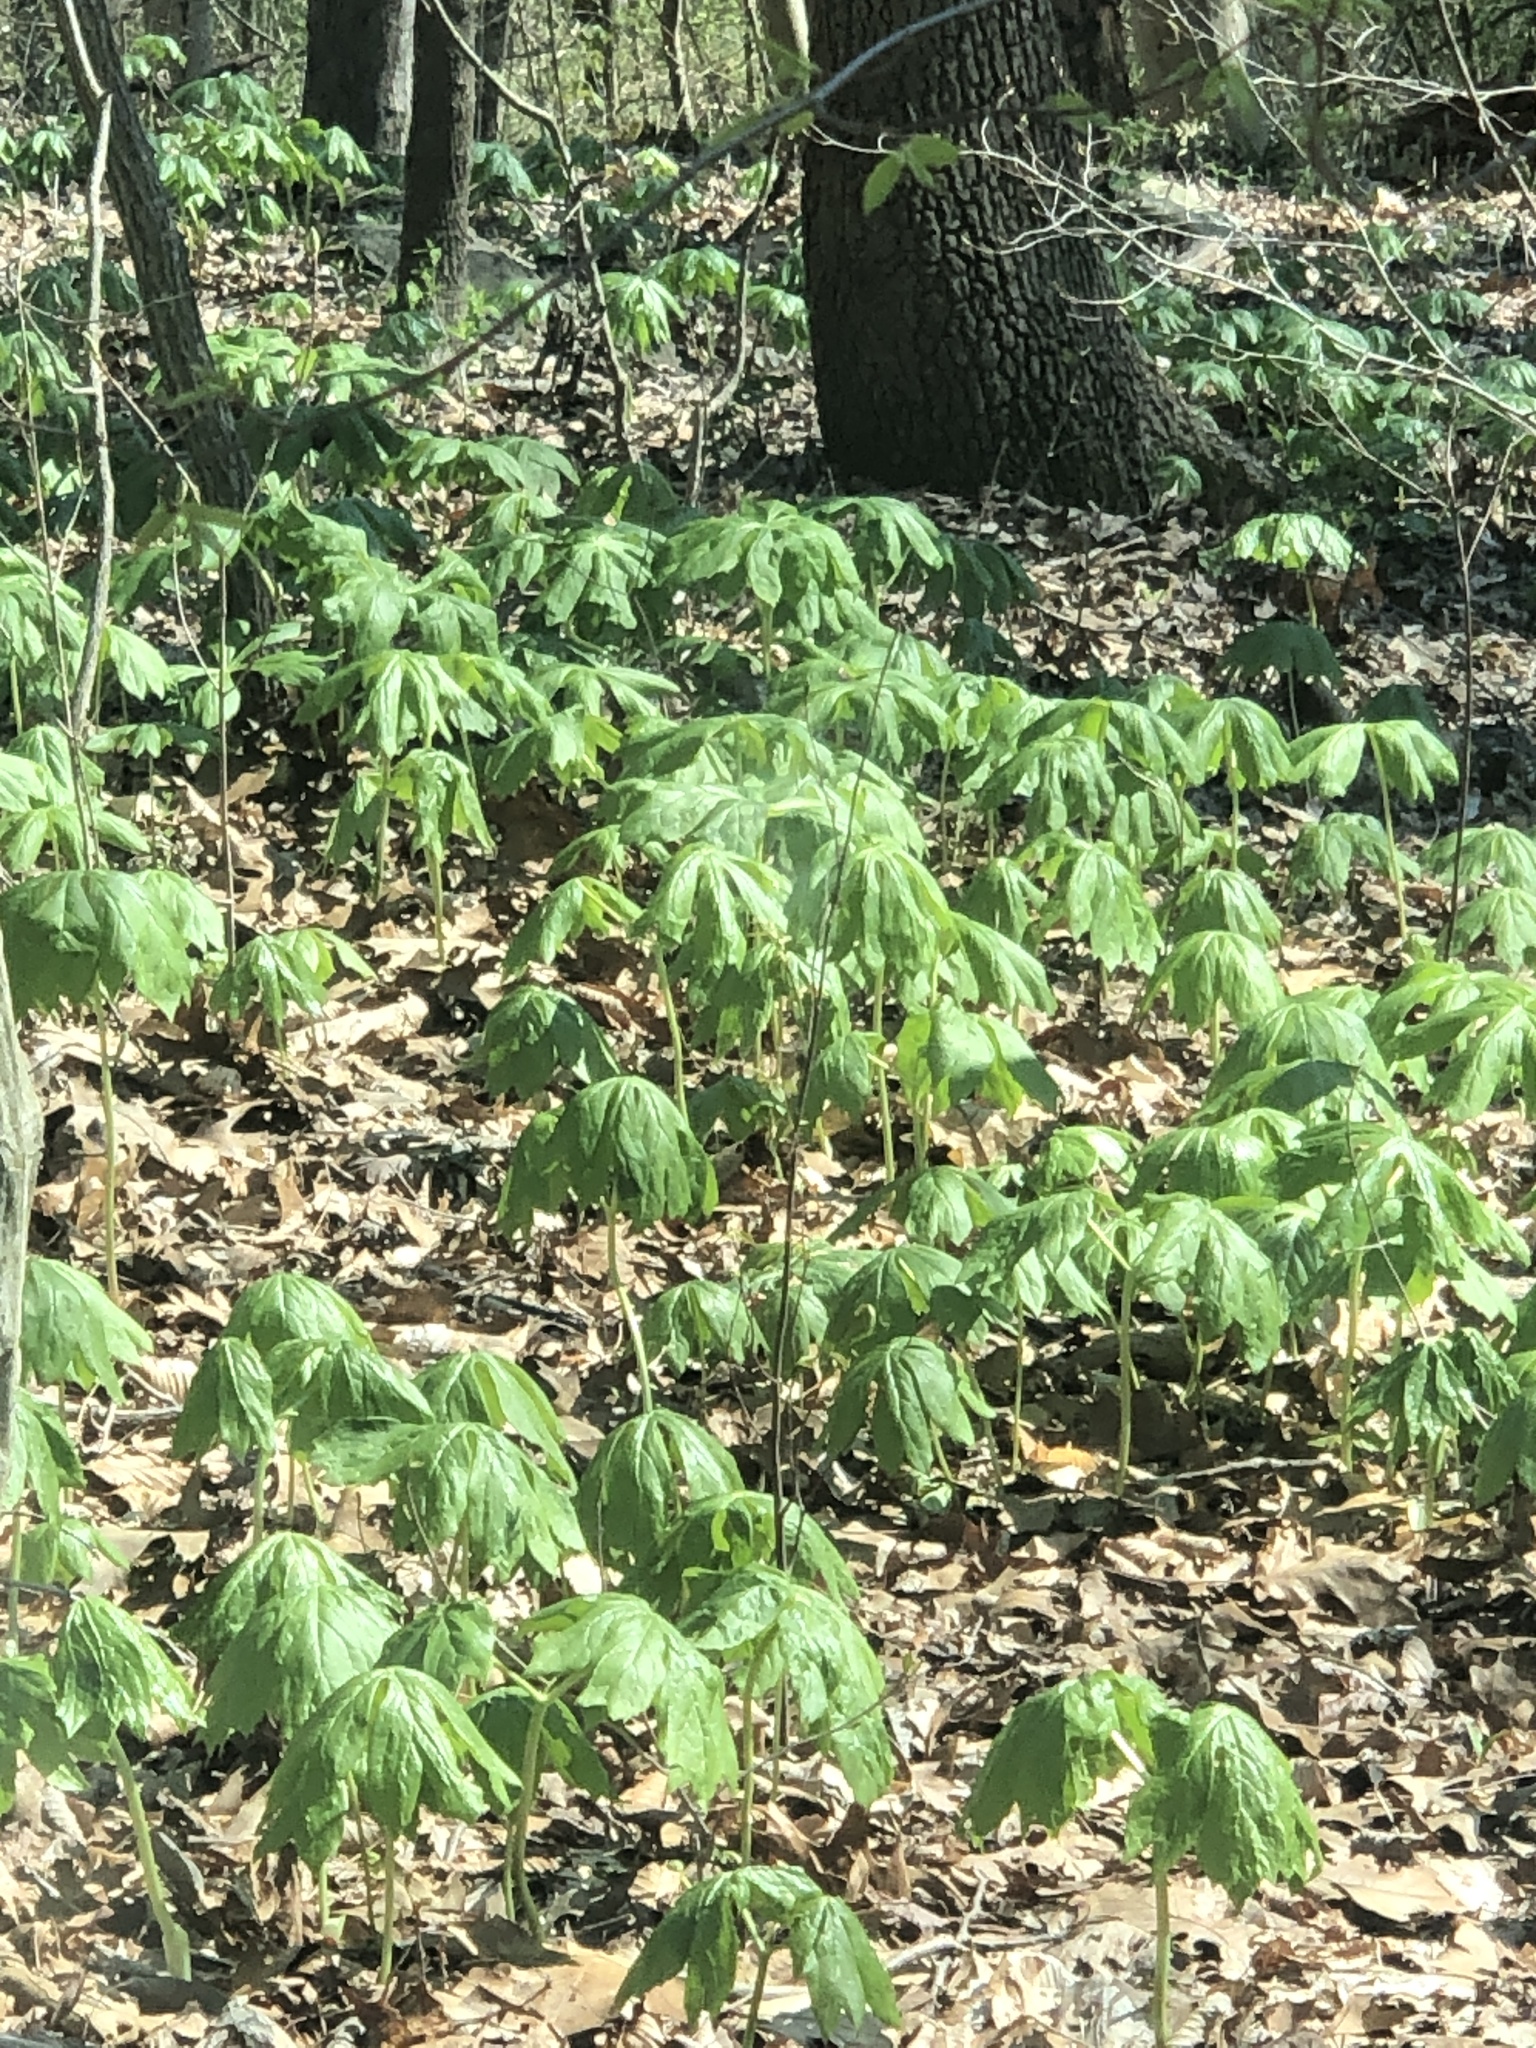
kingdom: Plantae
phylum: Tracheophyta
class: Magnoliopsida
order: Ranunculales
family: Berberidaceae
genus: Podophyllum
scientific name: Podophyllum peltatum
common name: Wild mandrake
